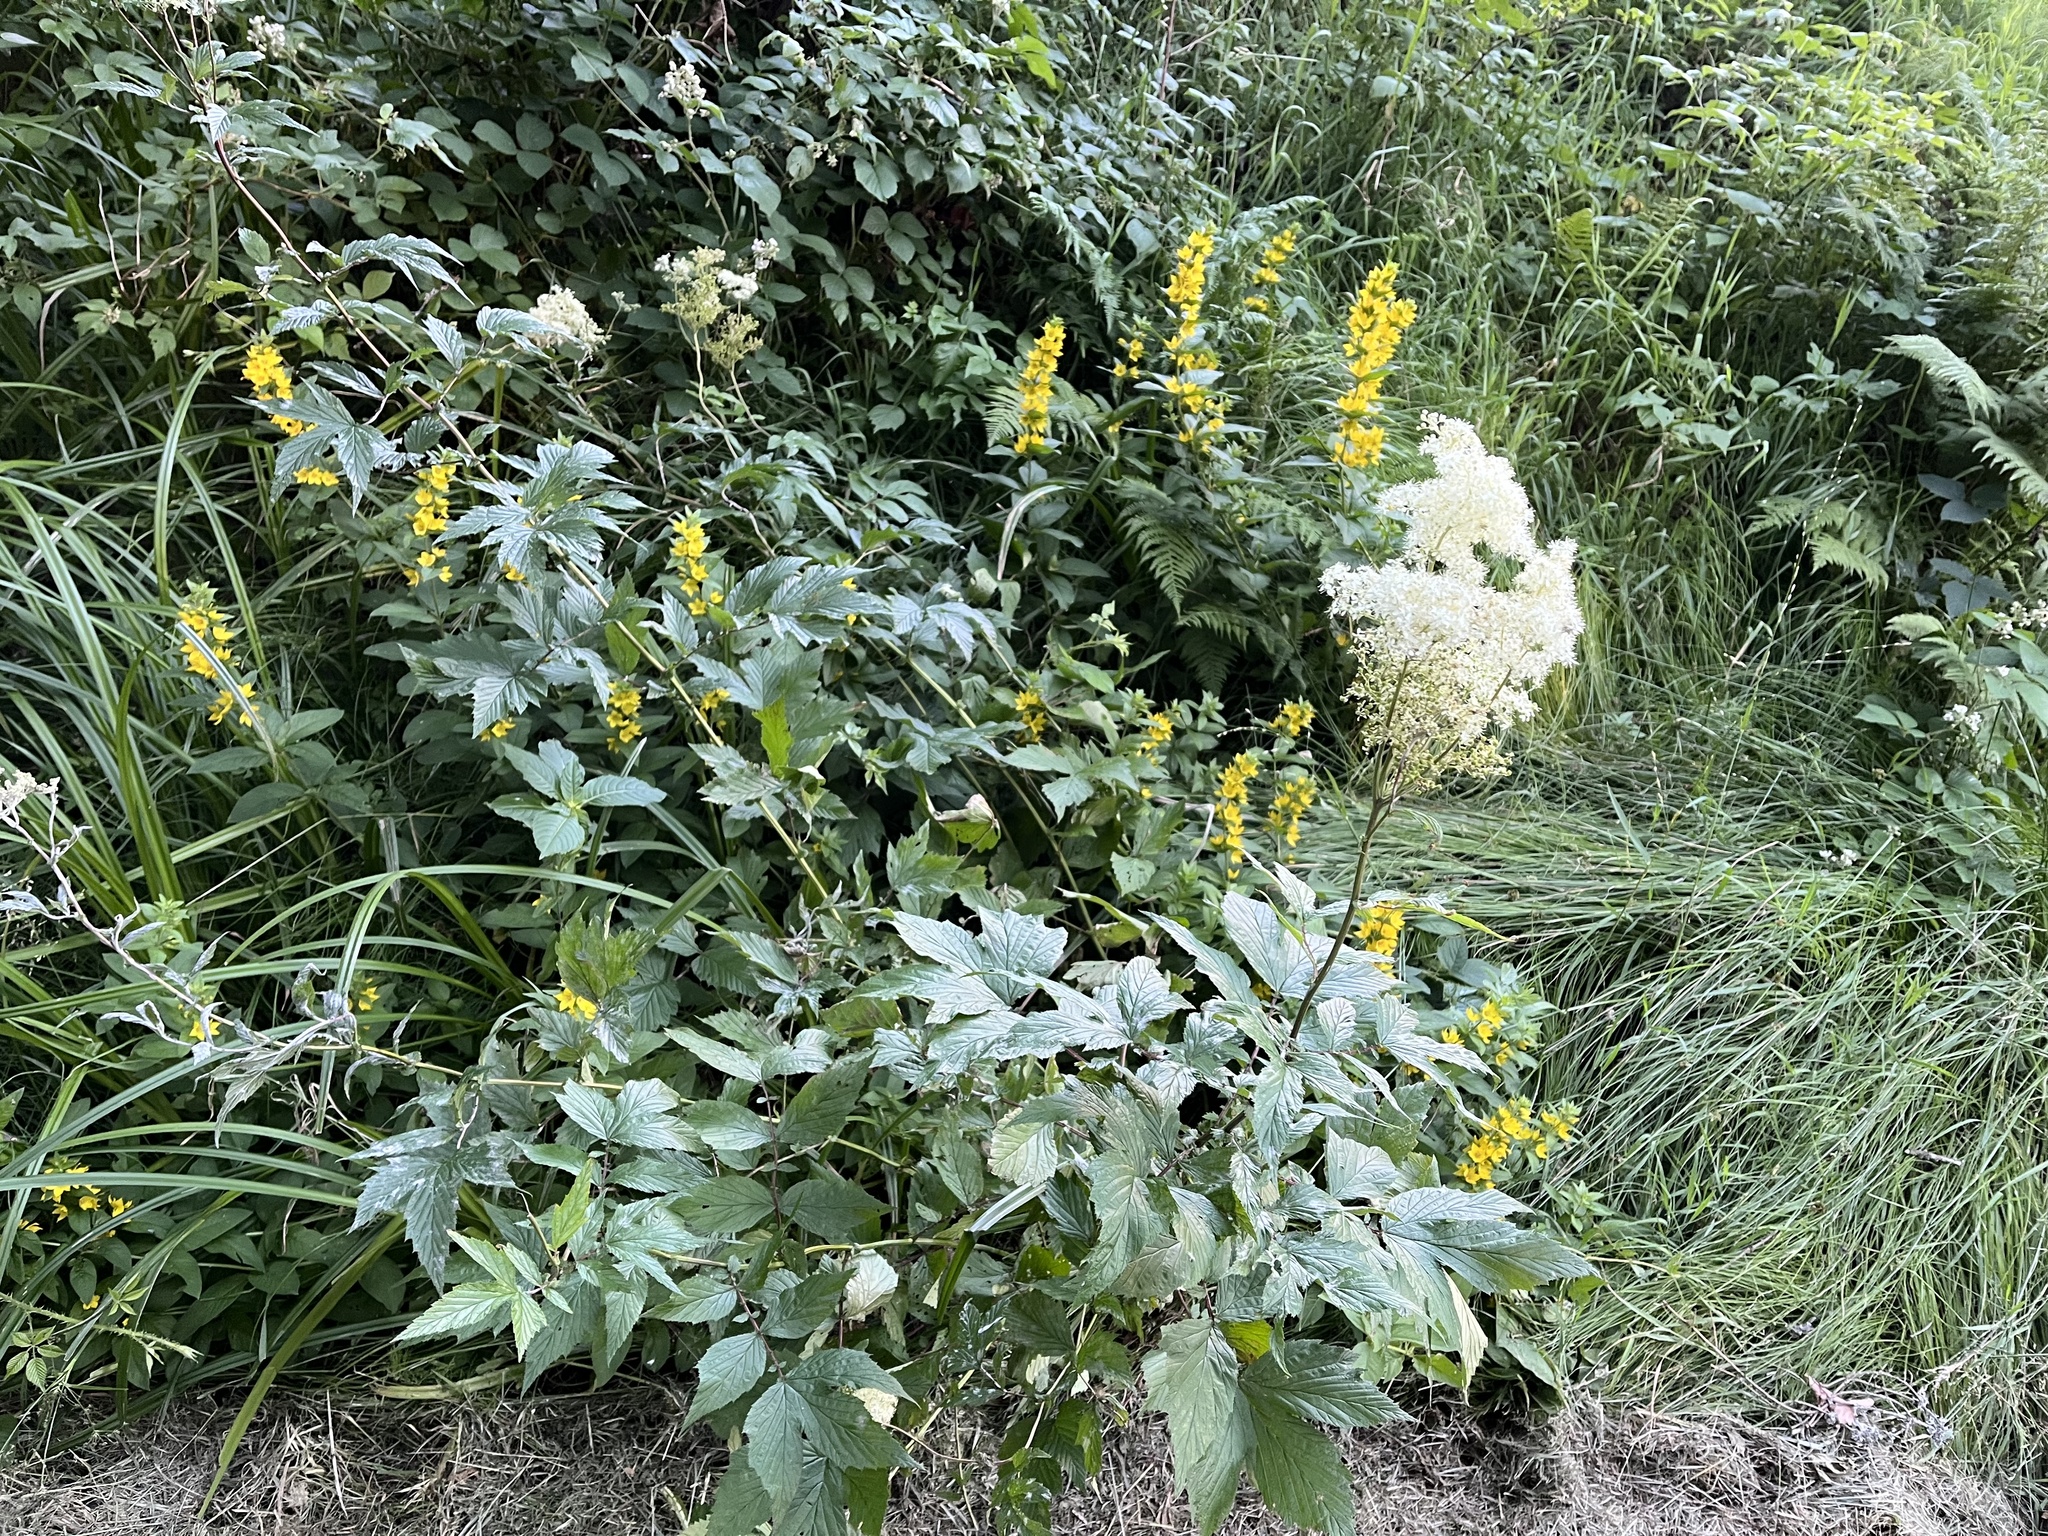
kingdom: Plantae
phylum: Tracheophyta
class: Magnoliopsida
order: Rosales
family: Rosaceae
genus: Filipendula
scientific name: Filipendula ulmaria
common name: Meadowsweet
